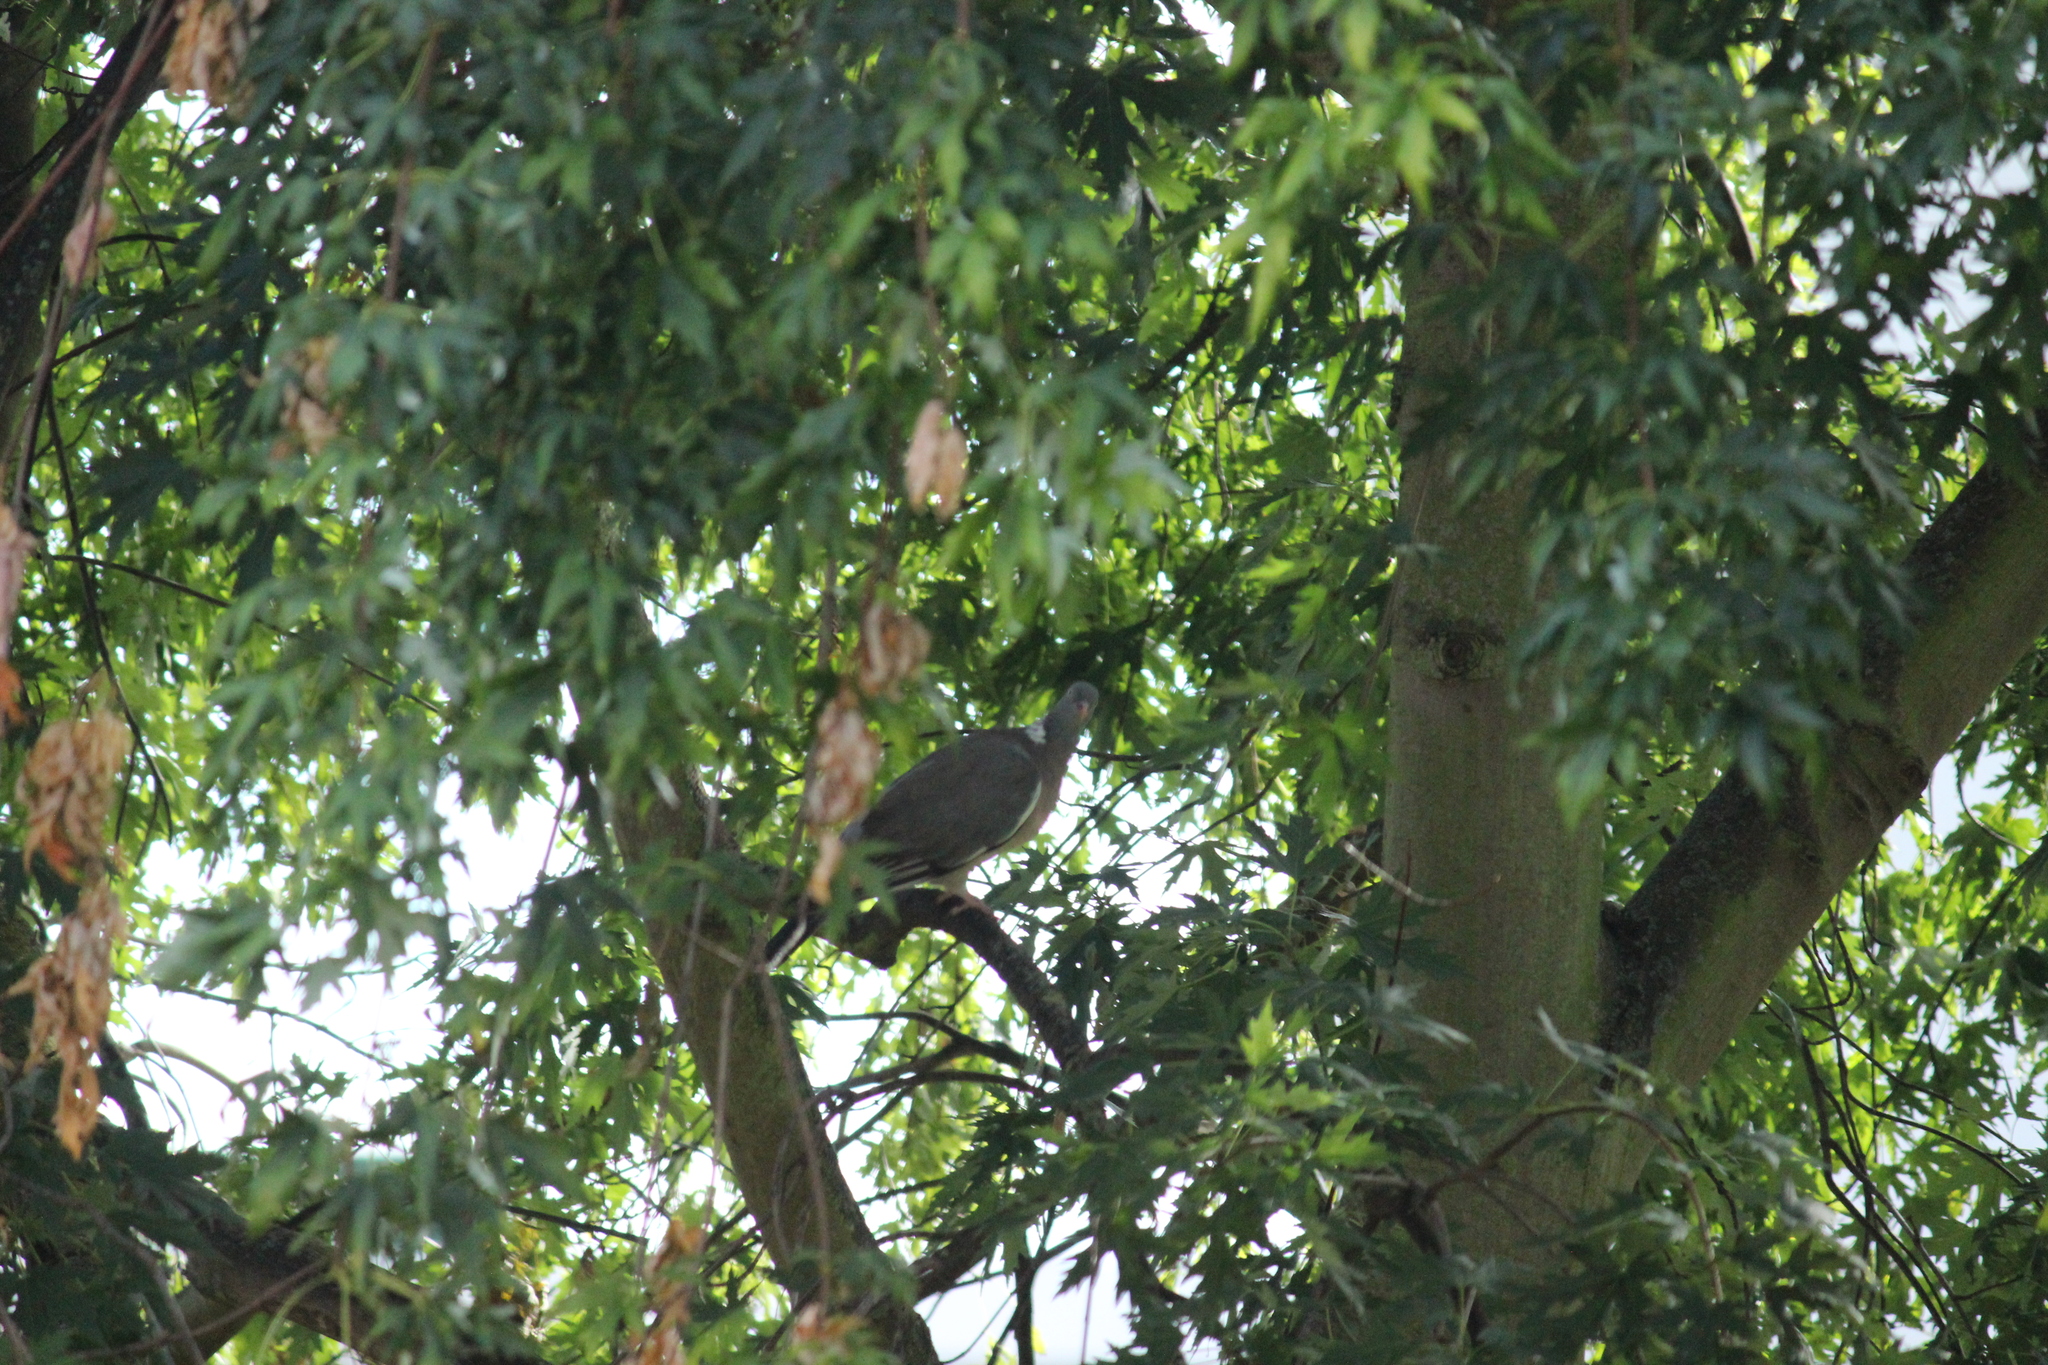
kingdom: Animalia
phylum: Chordata
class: Aves
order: Columbiformes
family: Columbidae
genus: Columba
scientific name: Columba palumbus
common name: Common wood pigeon
